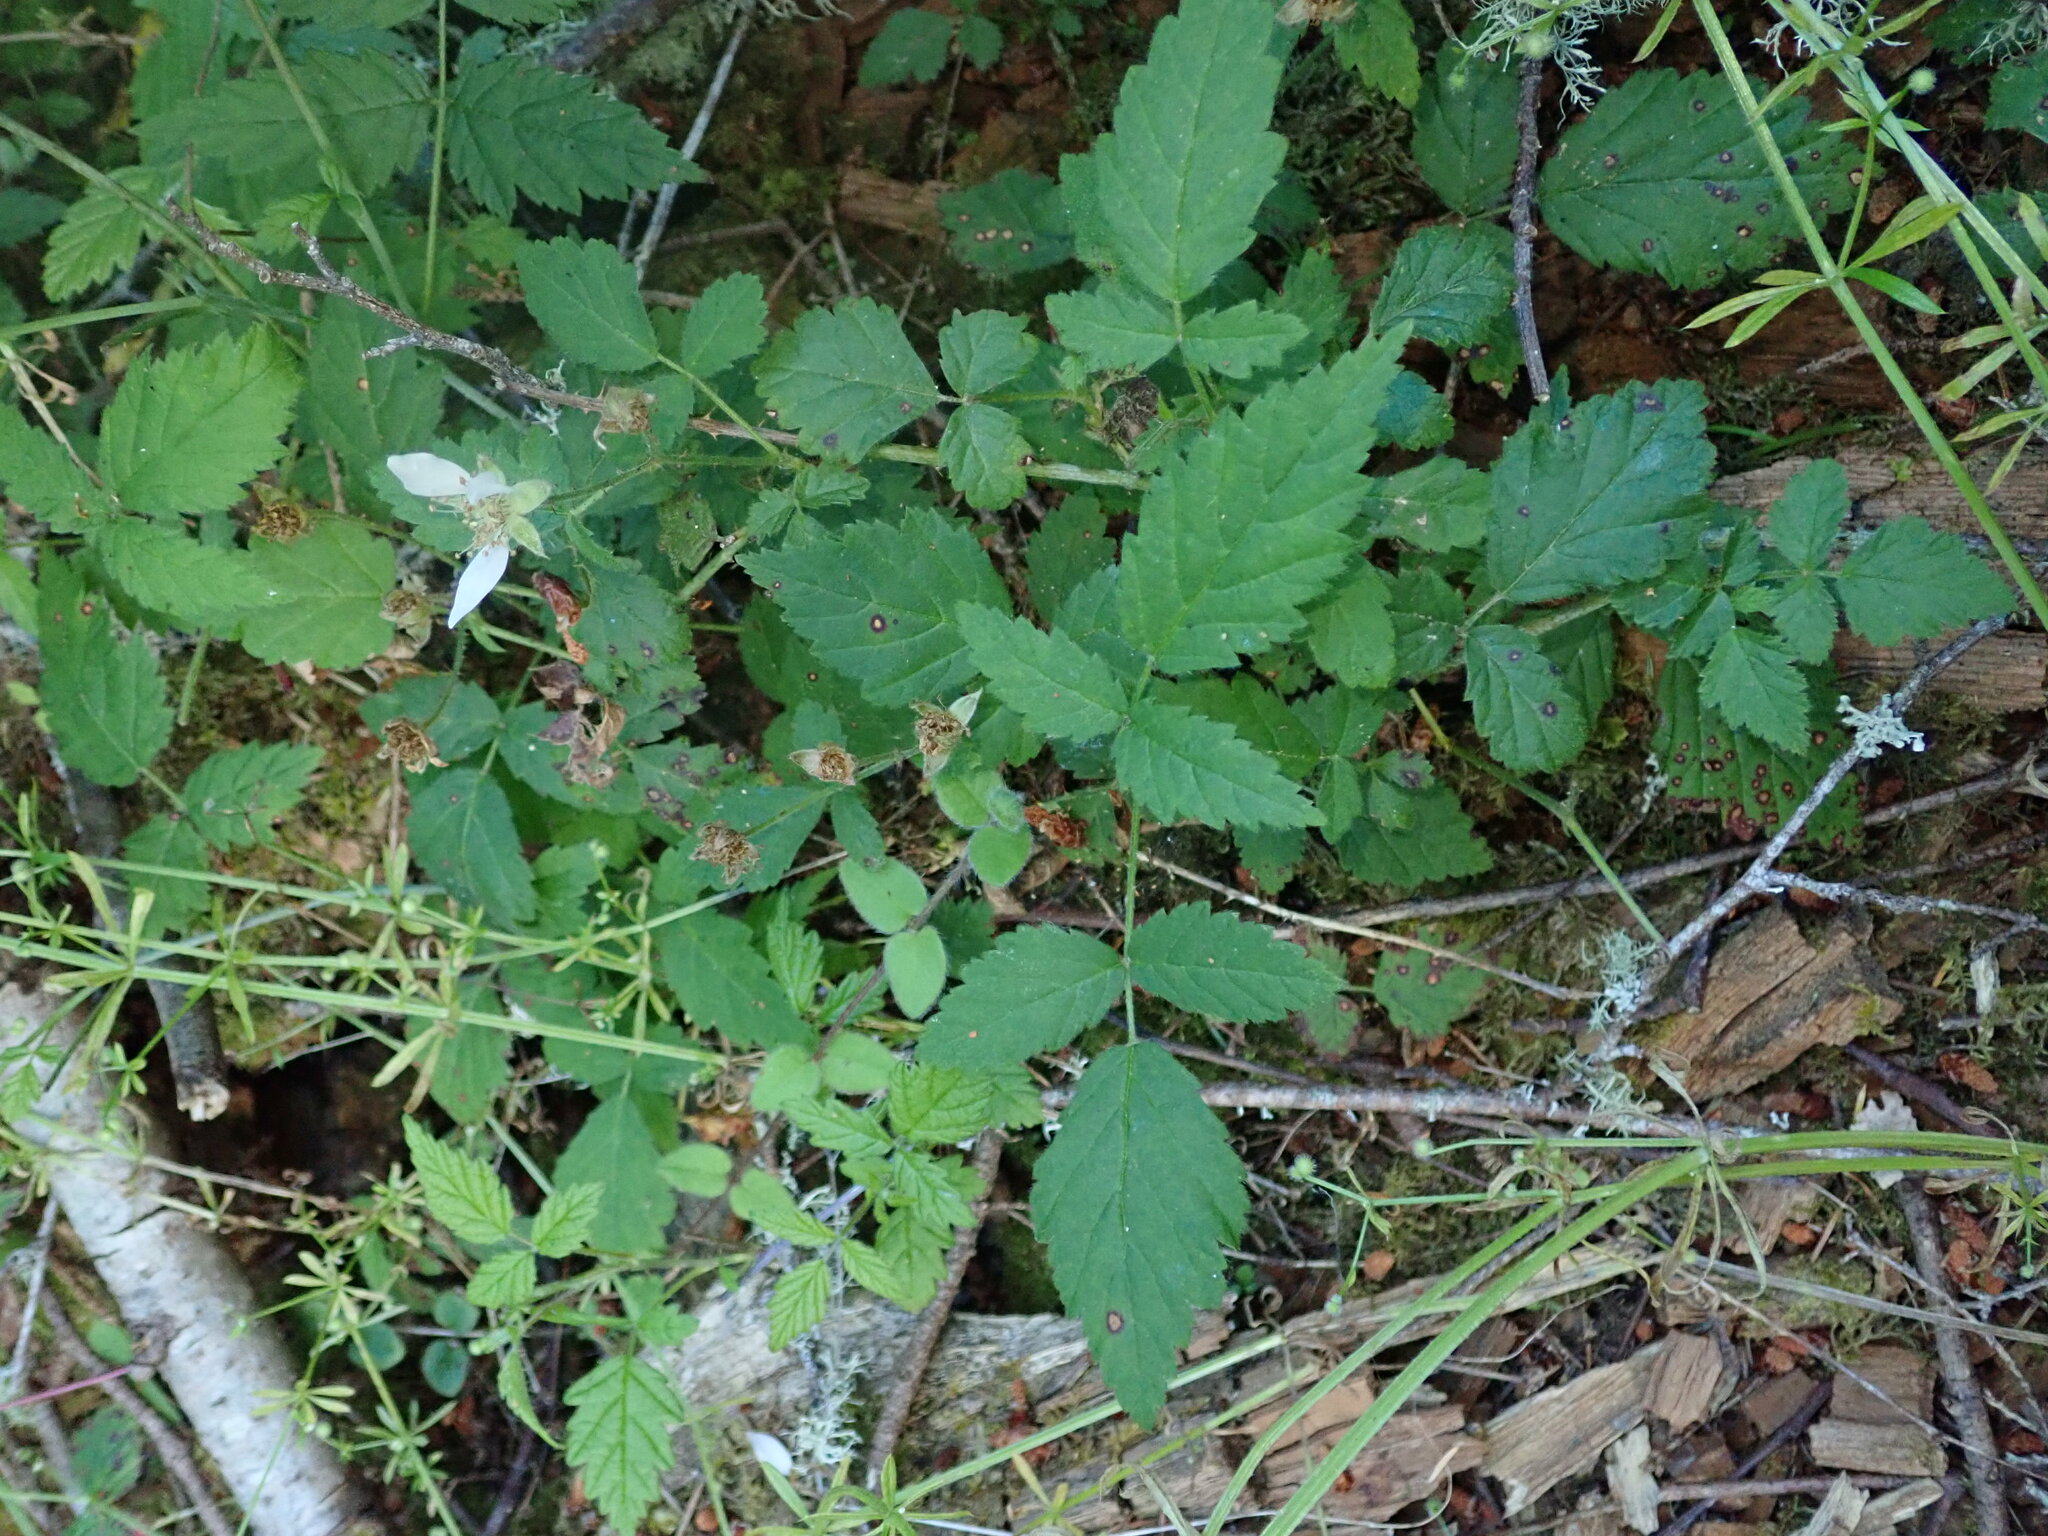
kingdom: Plantae
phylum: Tracheophyta
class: Magnoliopsida
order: Rosales
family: Rosaceae
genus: Rubus
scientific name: Rubus ursinus
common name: Pacific blackberry
